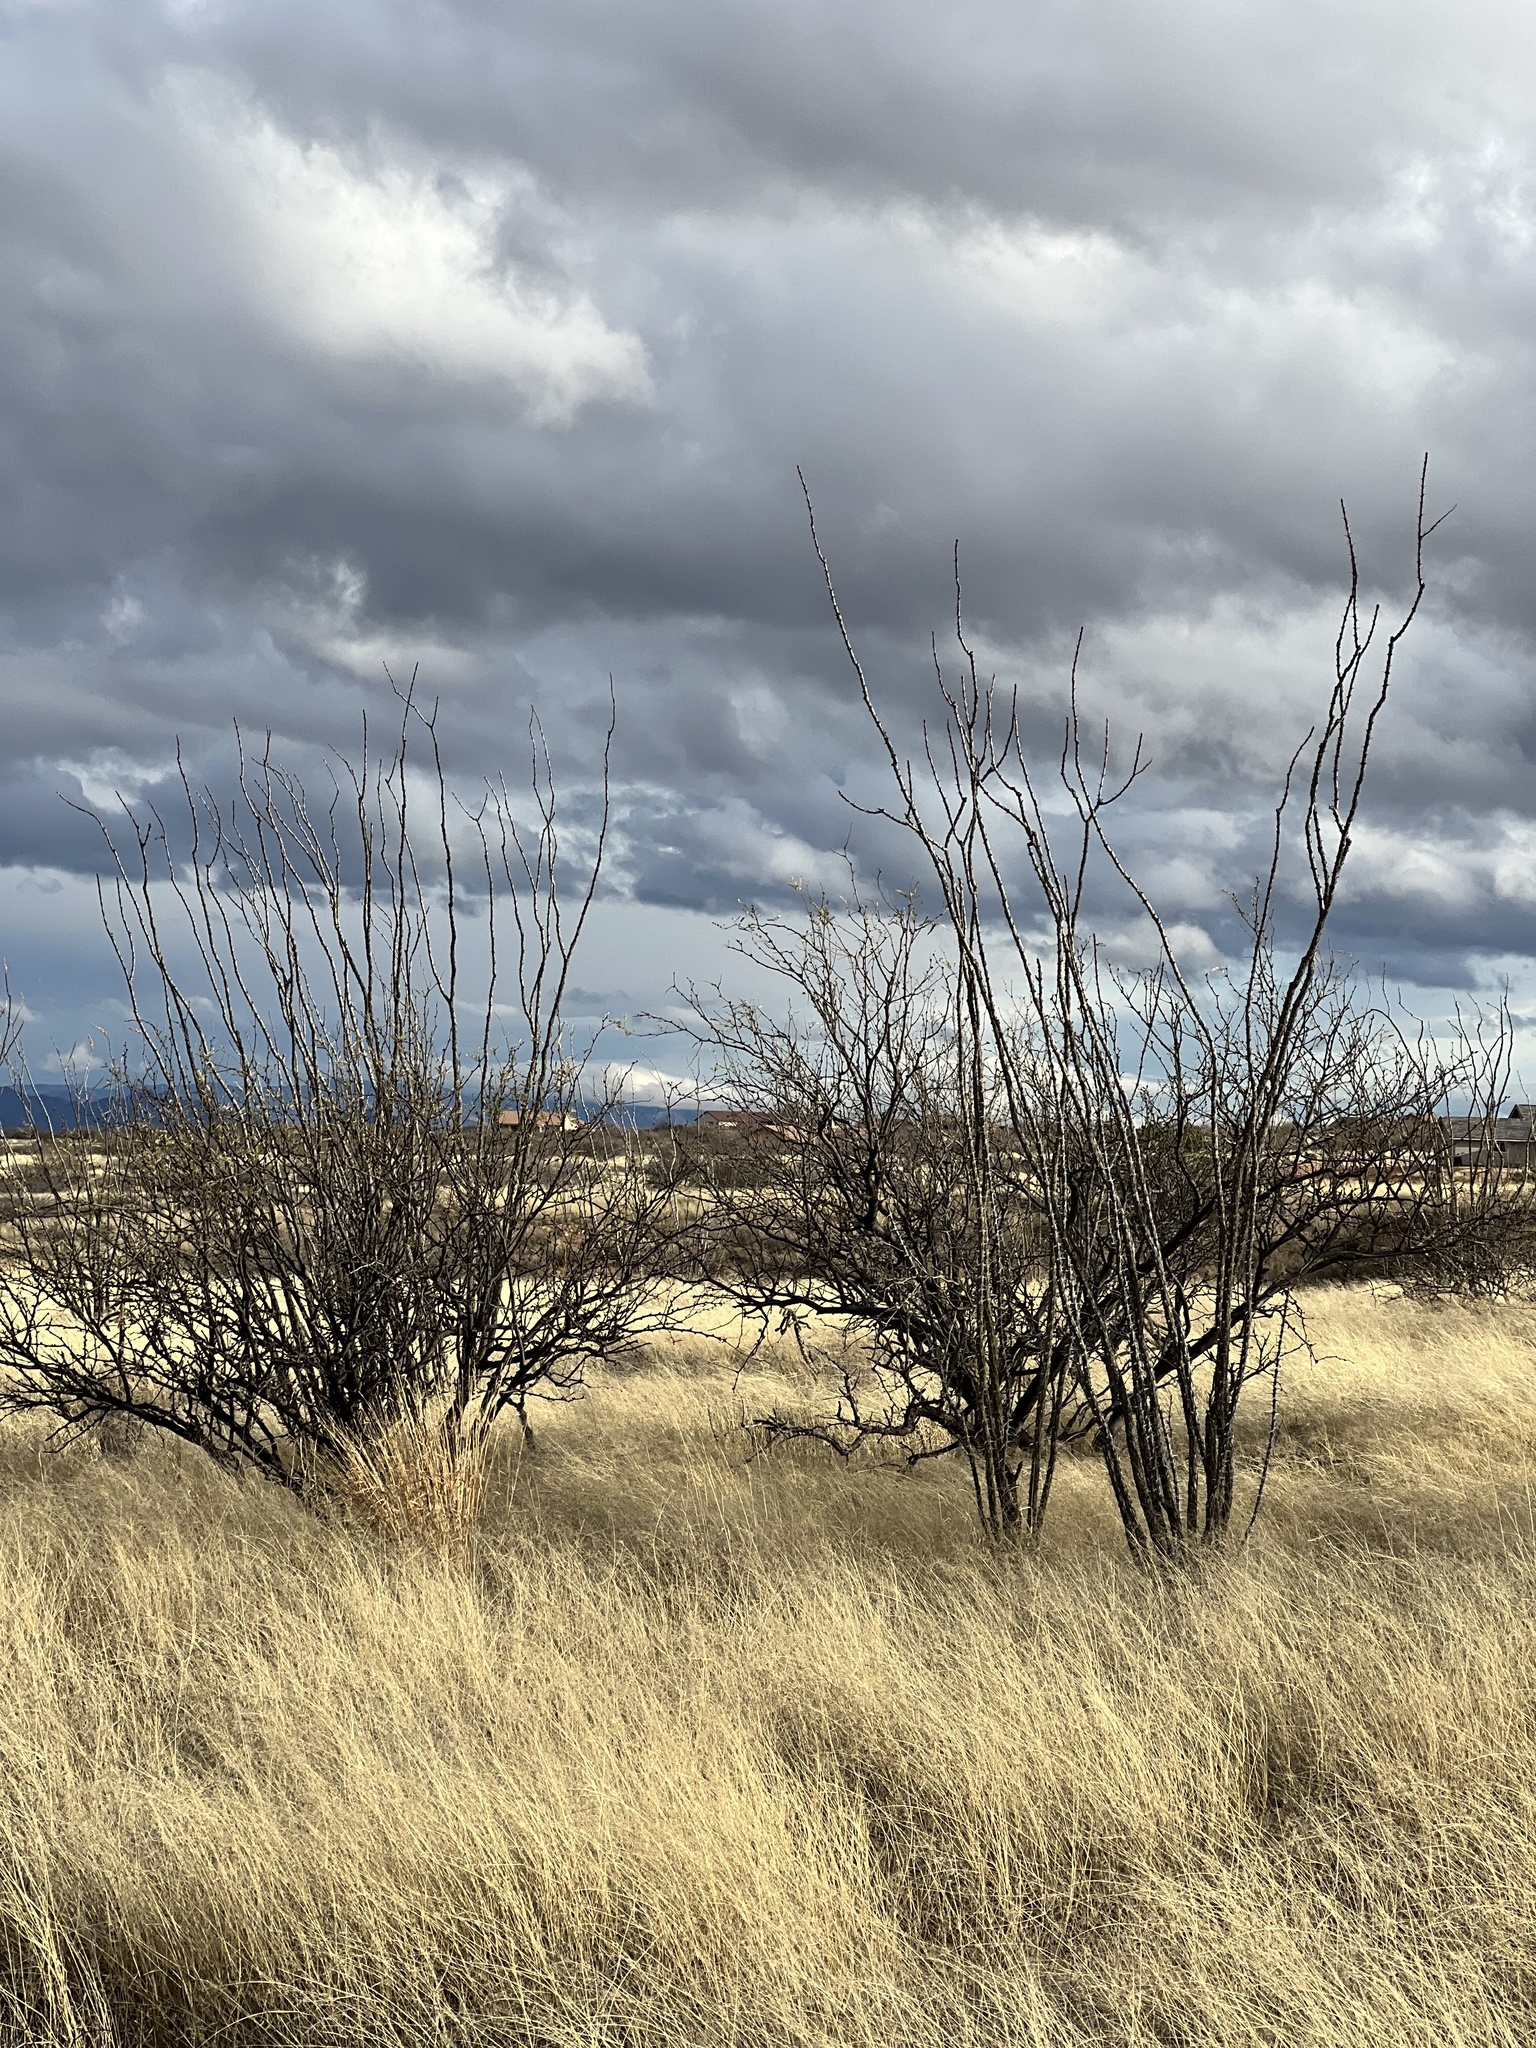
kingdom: Plantae
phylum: Tracheophyta
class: Magnoliopsida
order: Ericales
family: Fouquieriaceae
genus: Fouquieria
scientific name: Fouquieria splendens
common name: Vine-cactus
